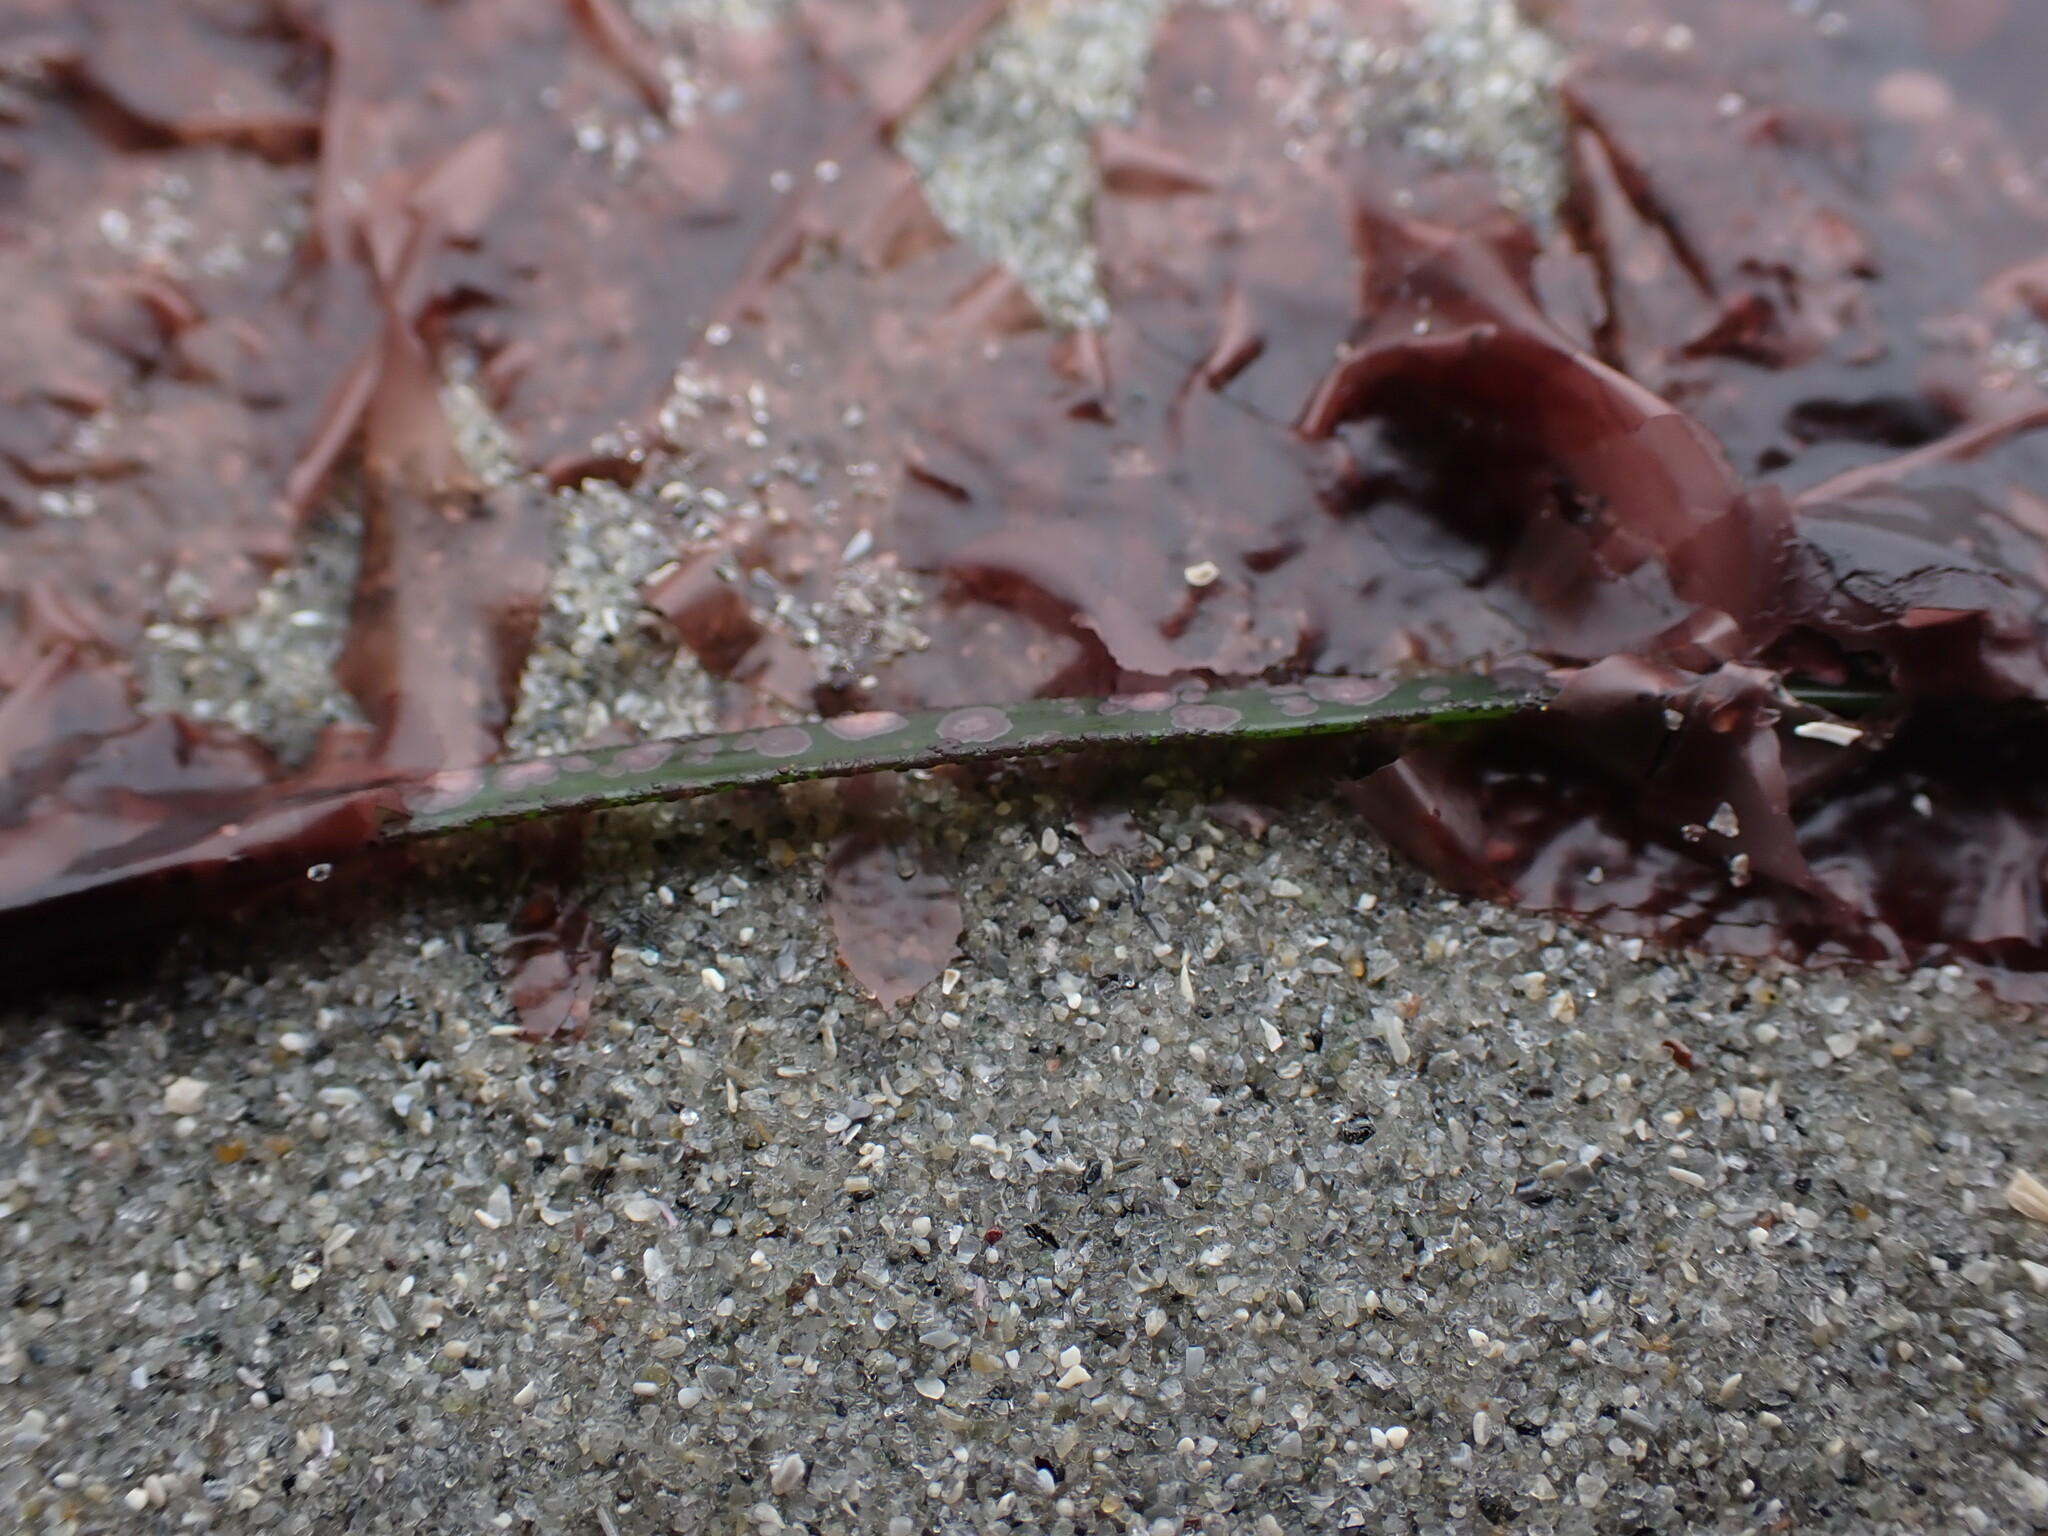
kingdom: Plantae
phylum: Rhodophyta
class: Compsopogonophyceae
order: Erythropeltidales
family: Erythrotrichiaceae
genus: Smithora
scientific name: Smithora naiadum
